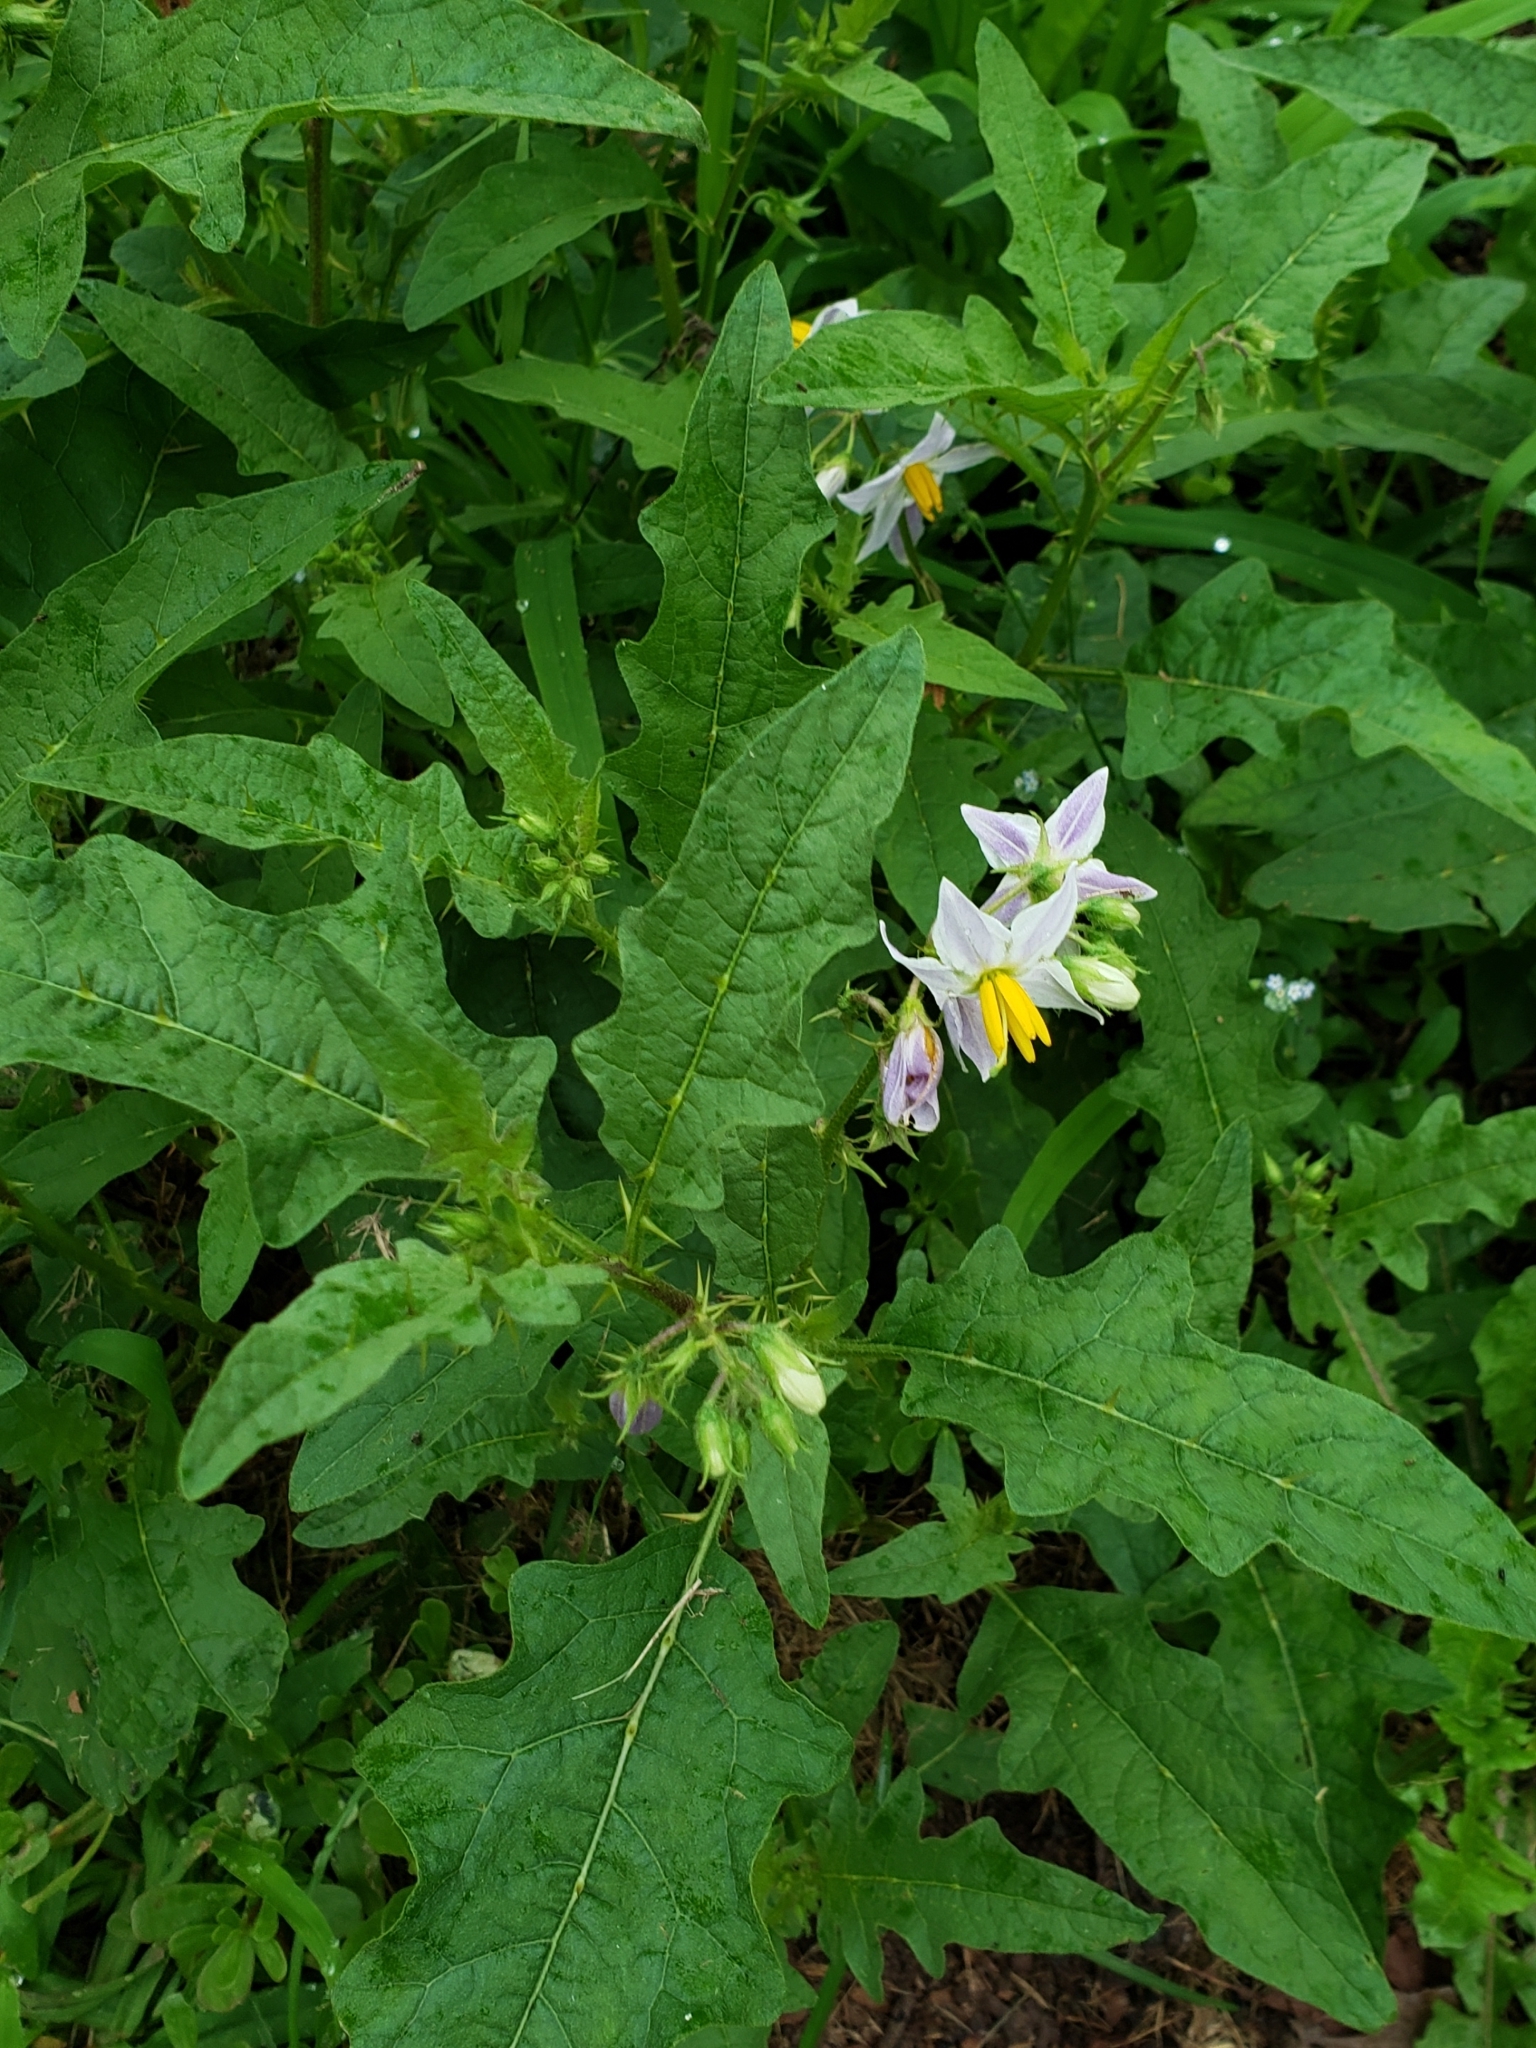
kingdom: Plantae
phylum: Tracheophyta
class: Magnoliopsida
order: Solanales
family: Solanaceae
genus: Solanum
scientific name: Solanum carolinense
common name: Horse-nettle
